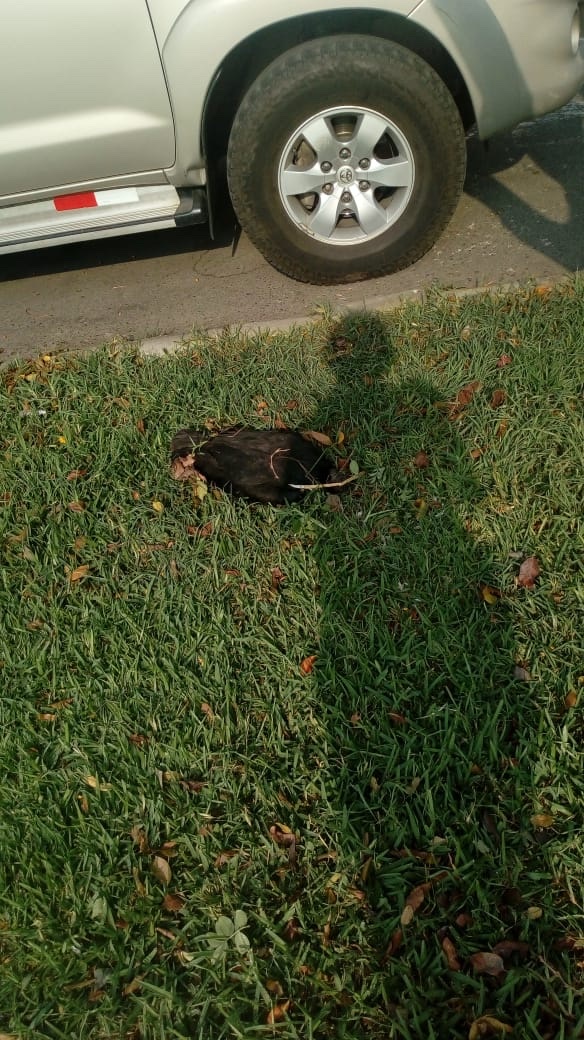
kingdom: Animalia
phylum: Chordata
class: Aves
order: Accipitriformes
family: Cathartidae
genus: Coragyps
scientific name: Coragyps atratus
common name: Black vulture
